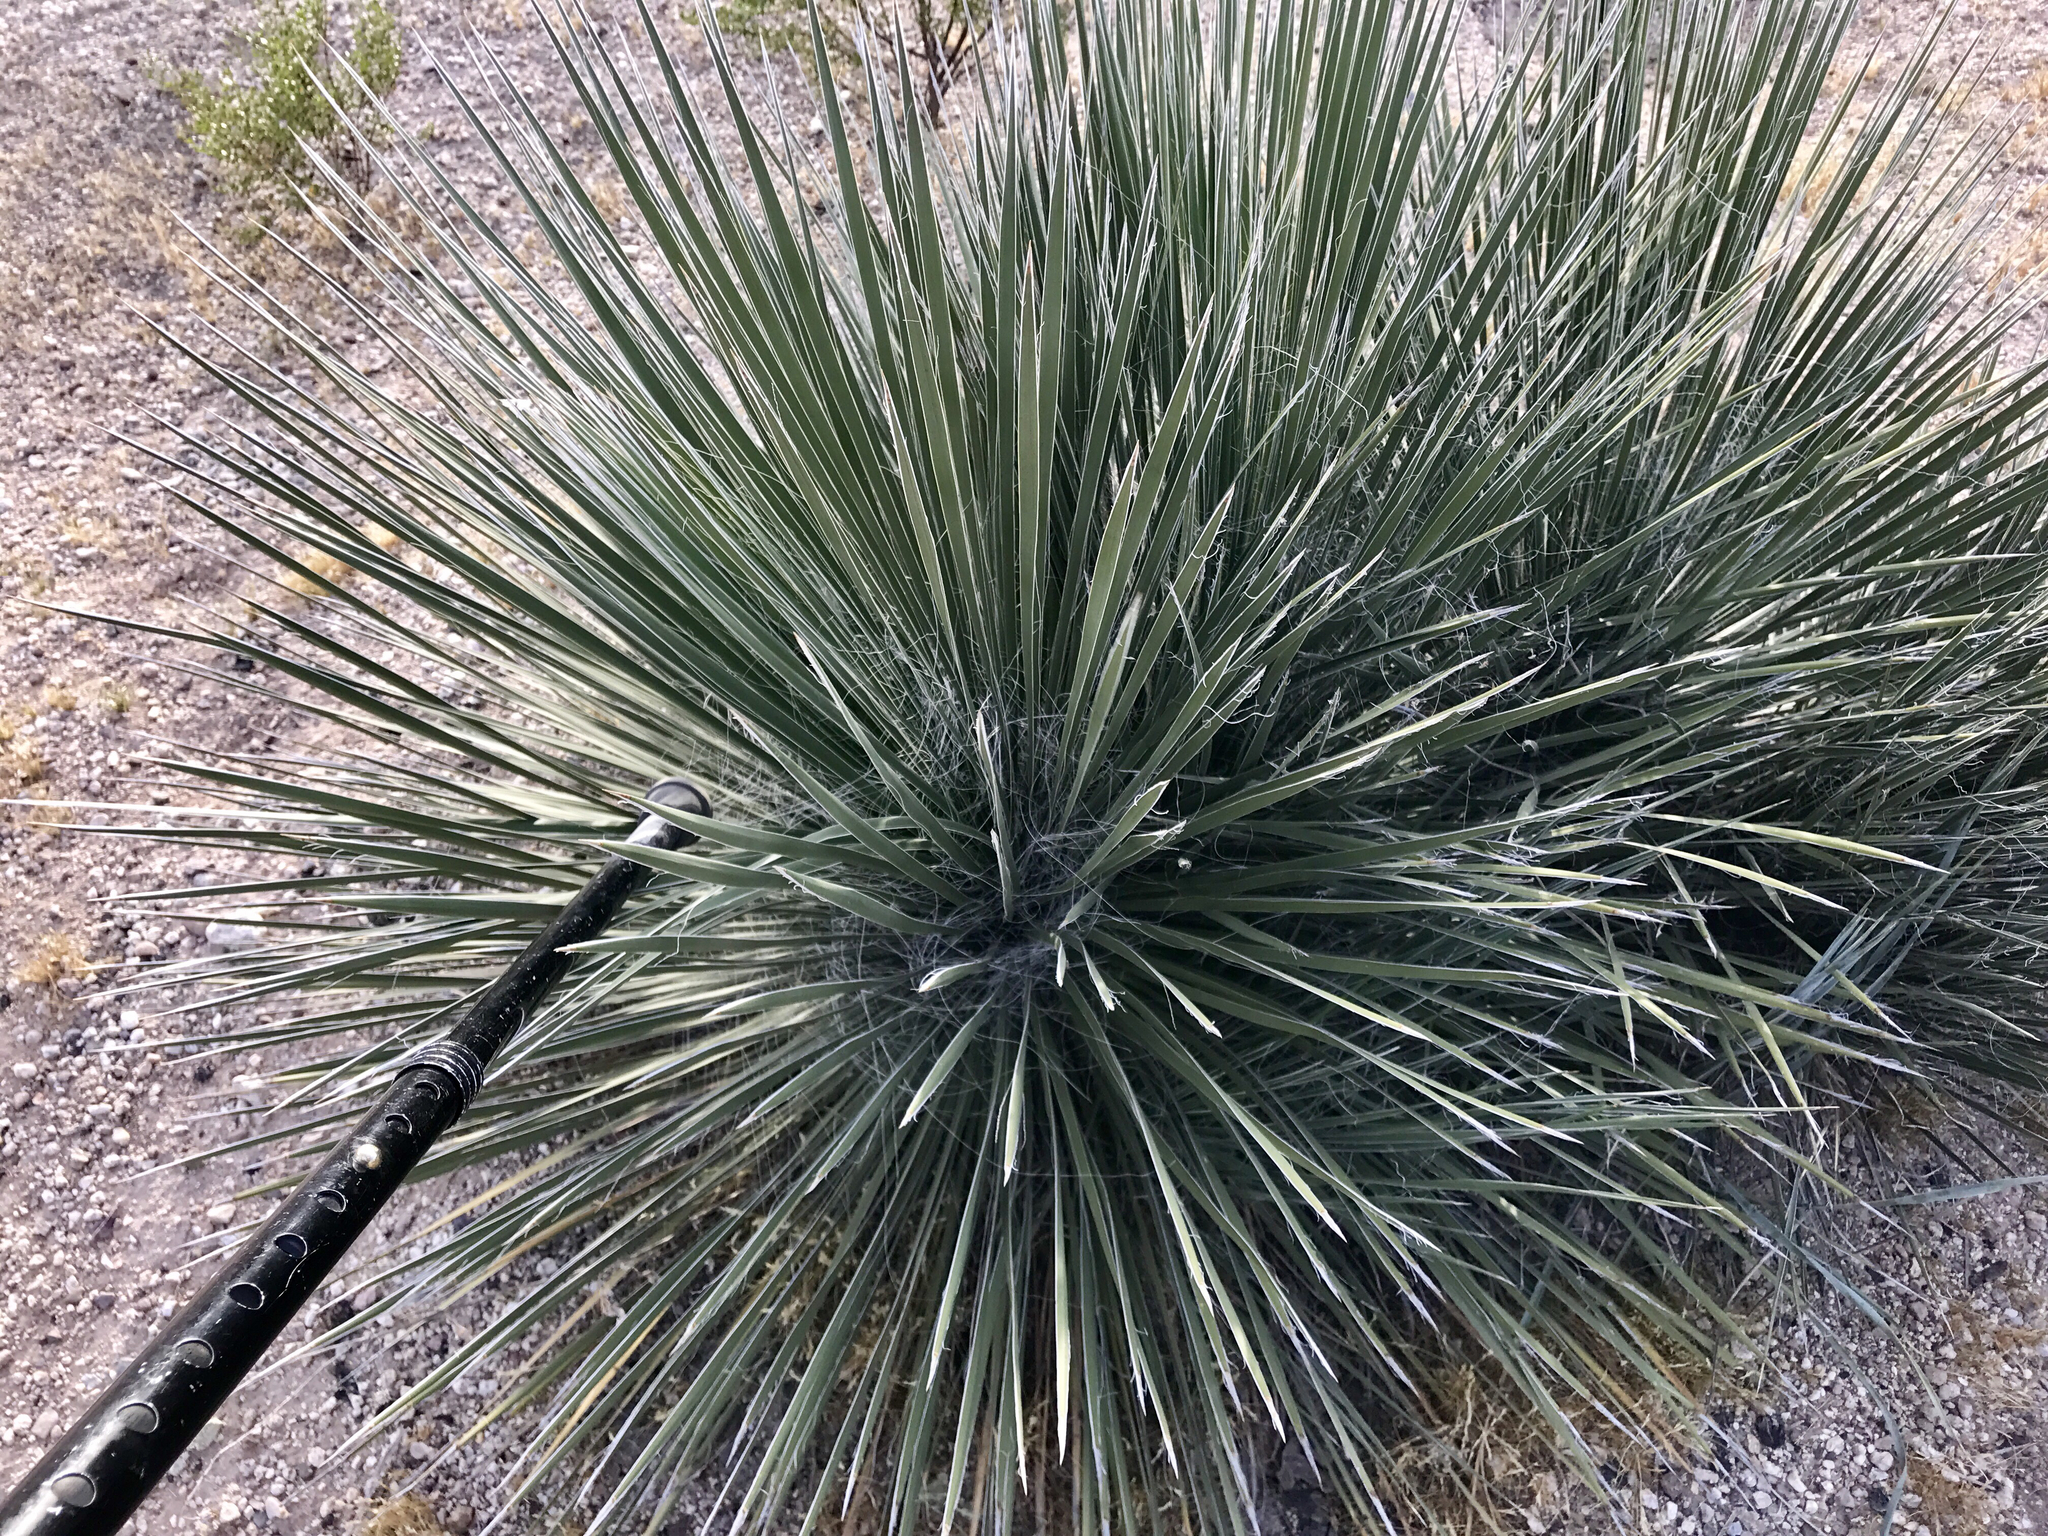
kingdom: Plantae
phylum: Tracheophyta
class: Liliopsida
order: Asparagales
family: Asparagaceae
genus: Yucca
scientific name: Yucca elata
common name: Palmella
